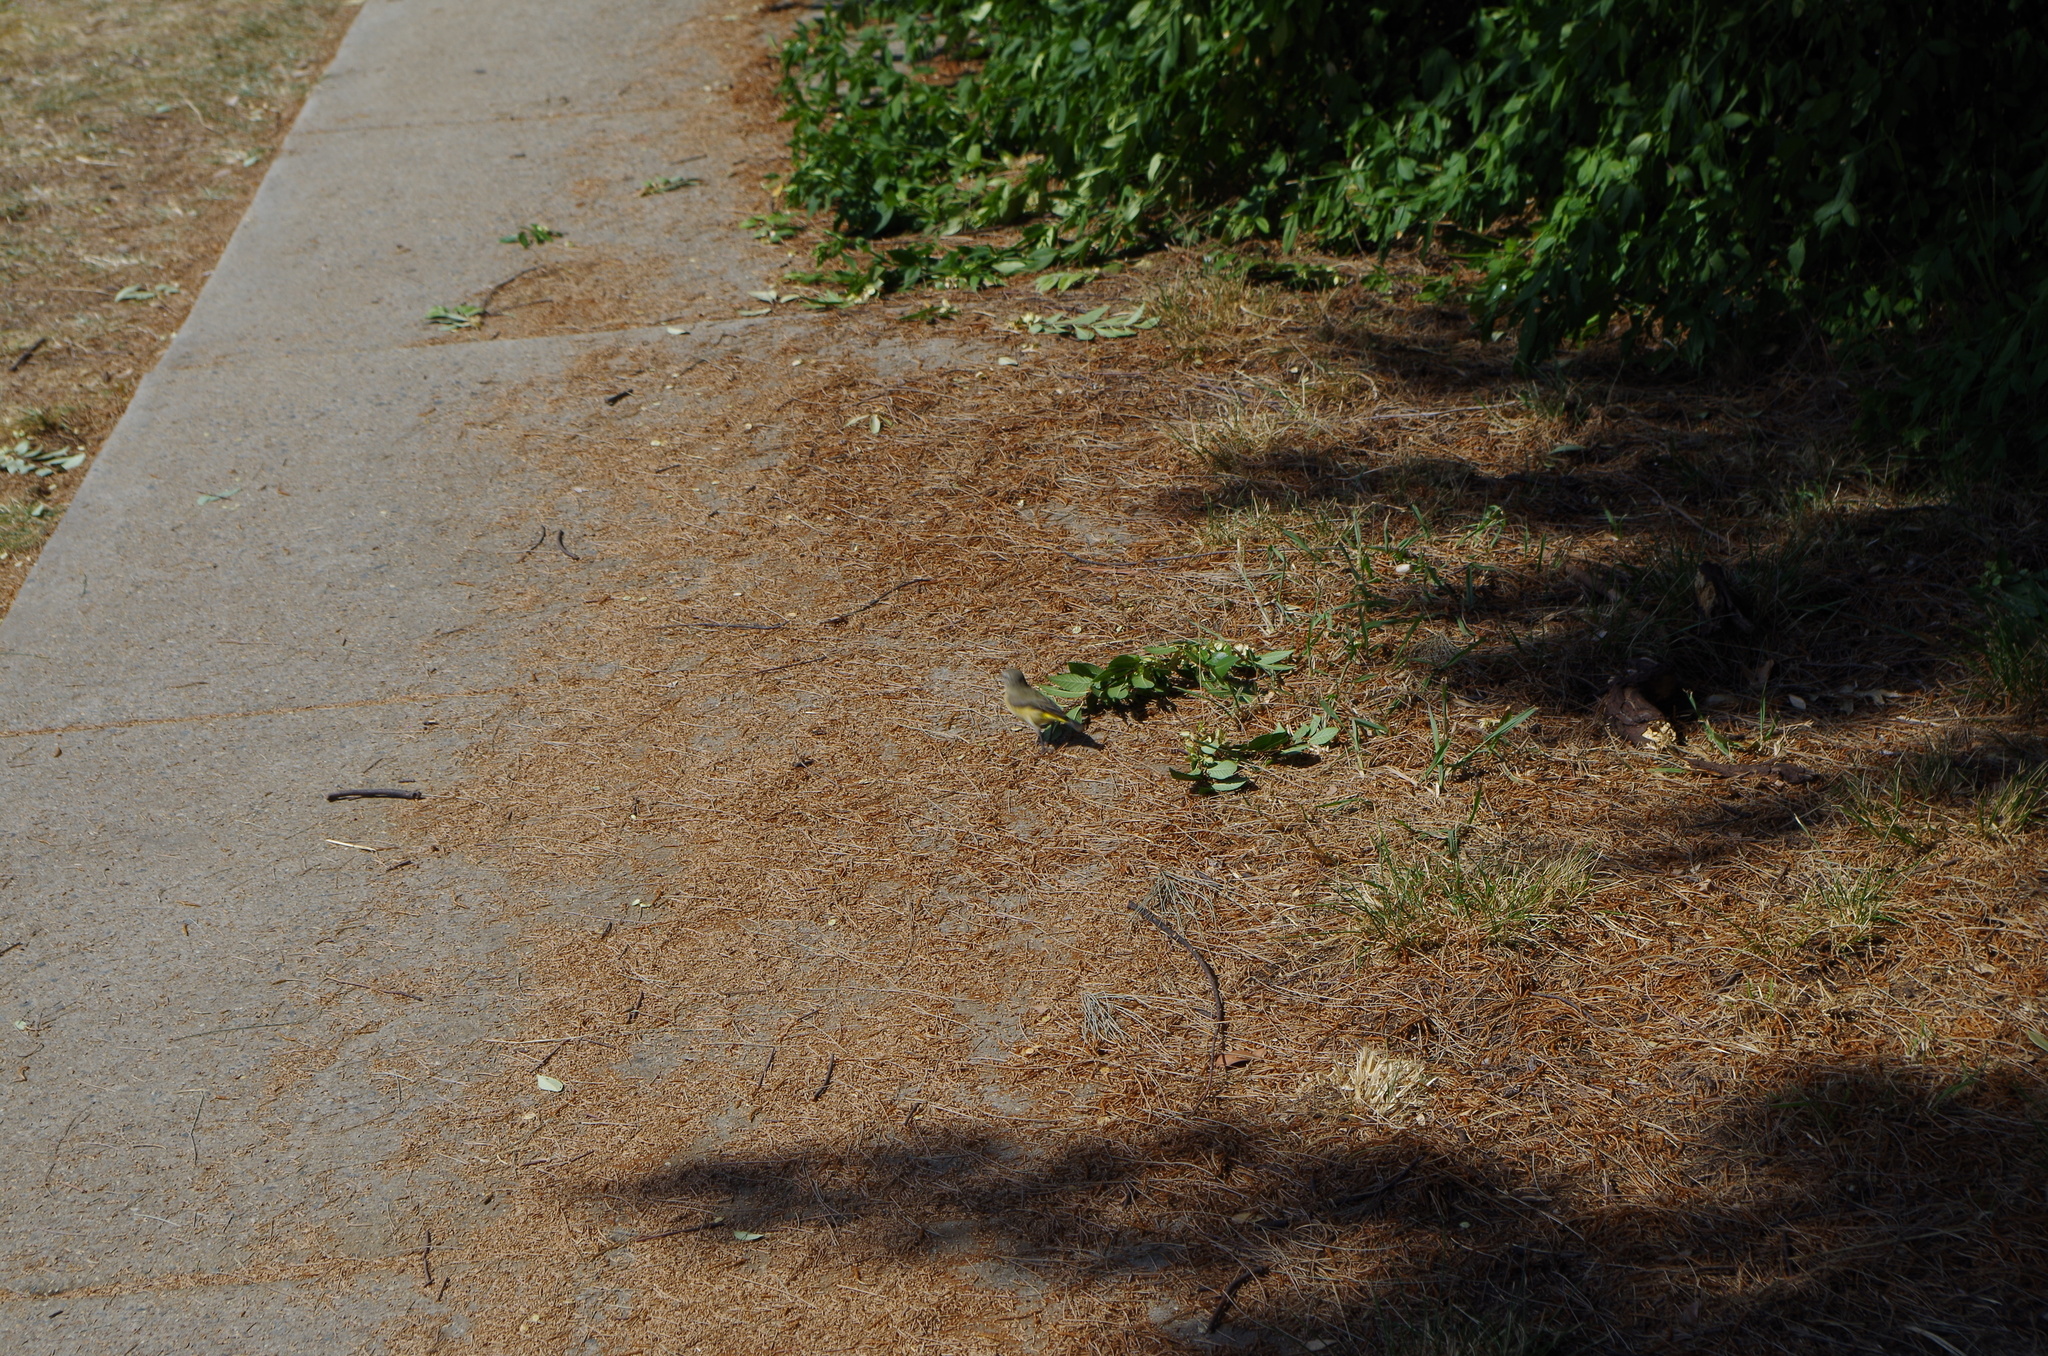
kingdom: Animalia
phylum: Chordata
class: Aves
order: Passeriformes
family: Acanthizidae
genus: Acanthiza
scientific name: Acanthiza chrysorrhoa
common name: Yellow-rumped thornbill
